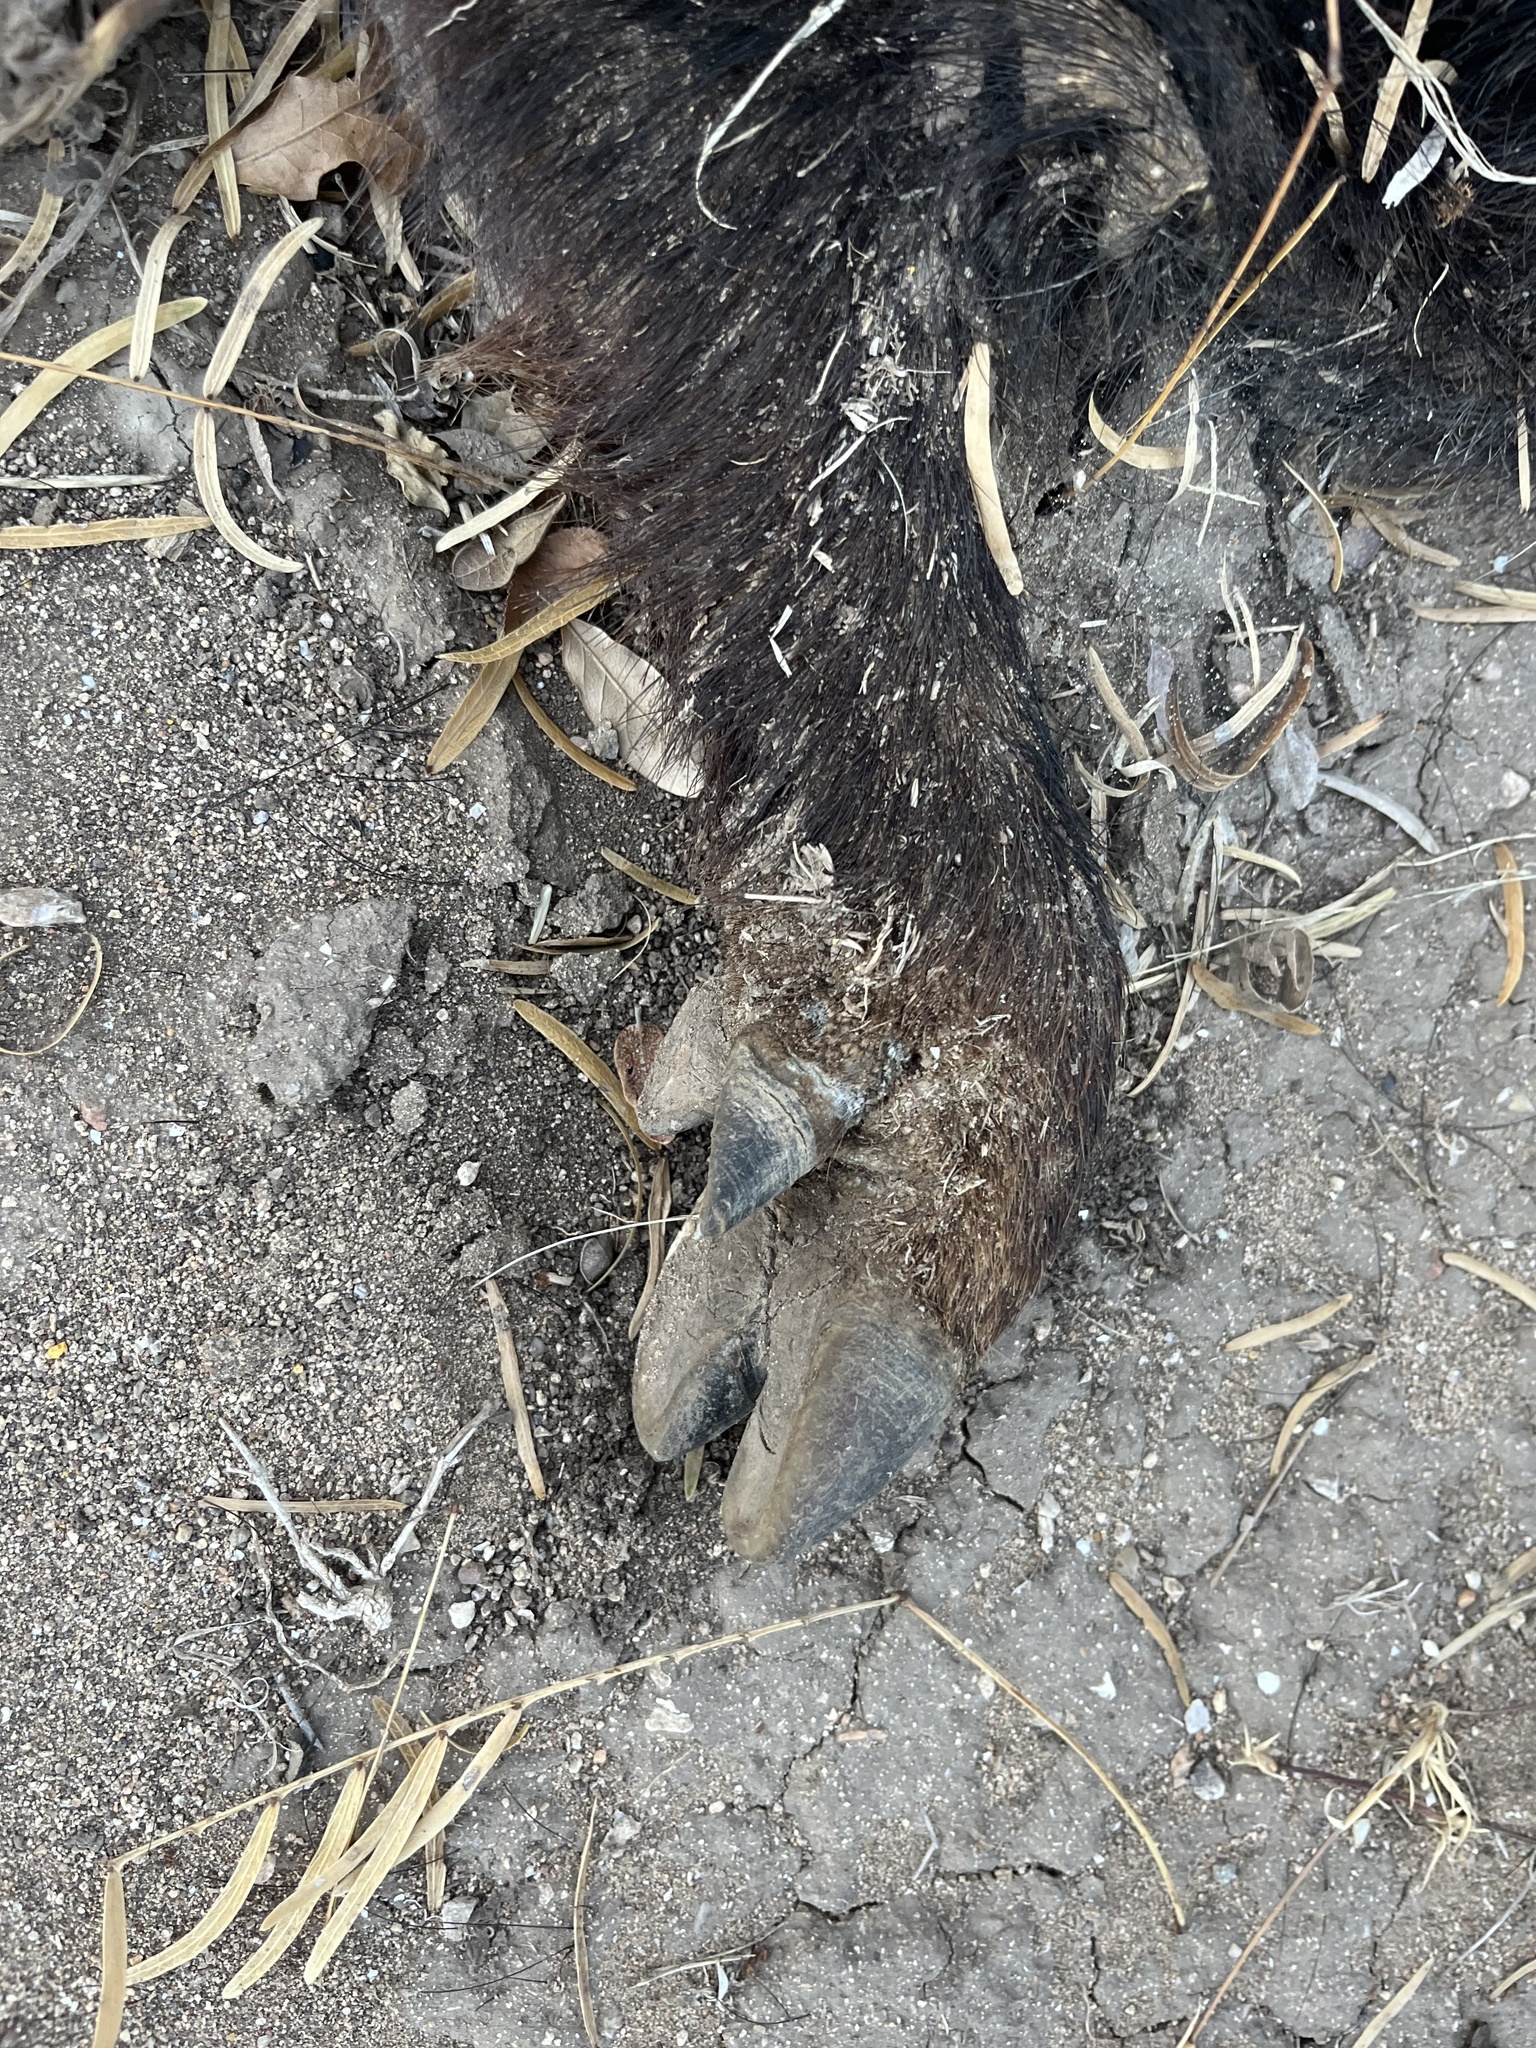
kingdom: Animalia
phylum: Chordata
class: Mammalia
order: Artiodactyla
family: Suidae
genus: Sus
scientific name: Sus scrofa
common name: Wild boar
